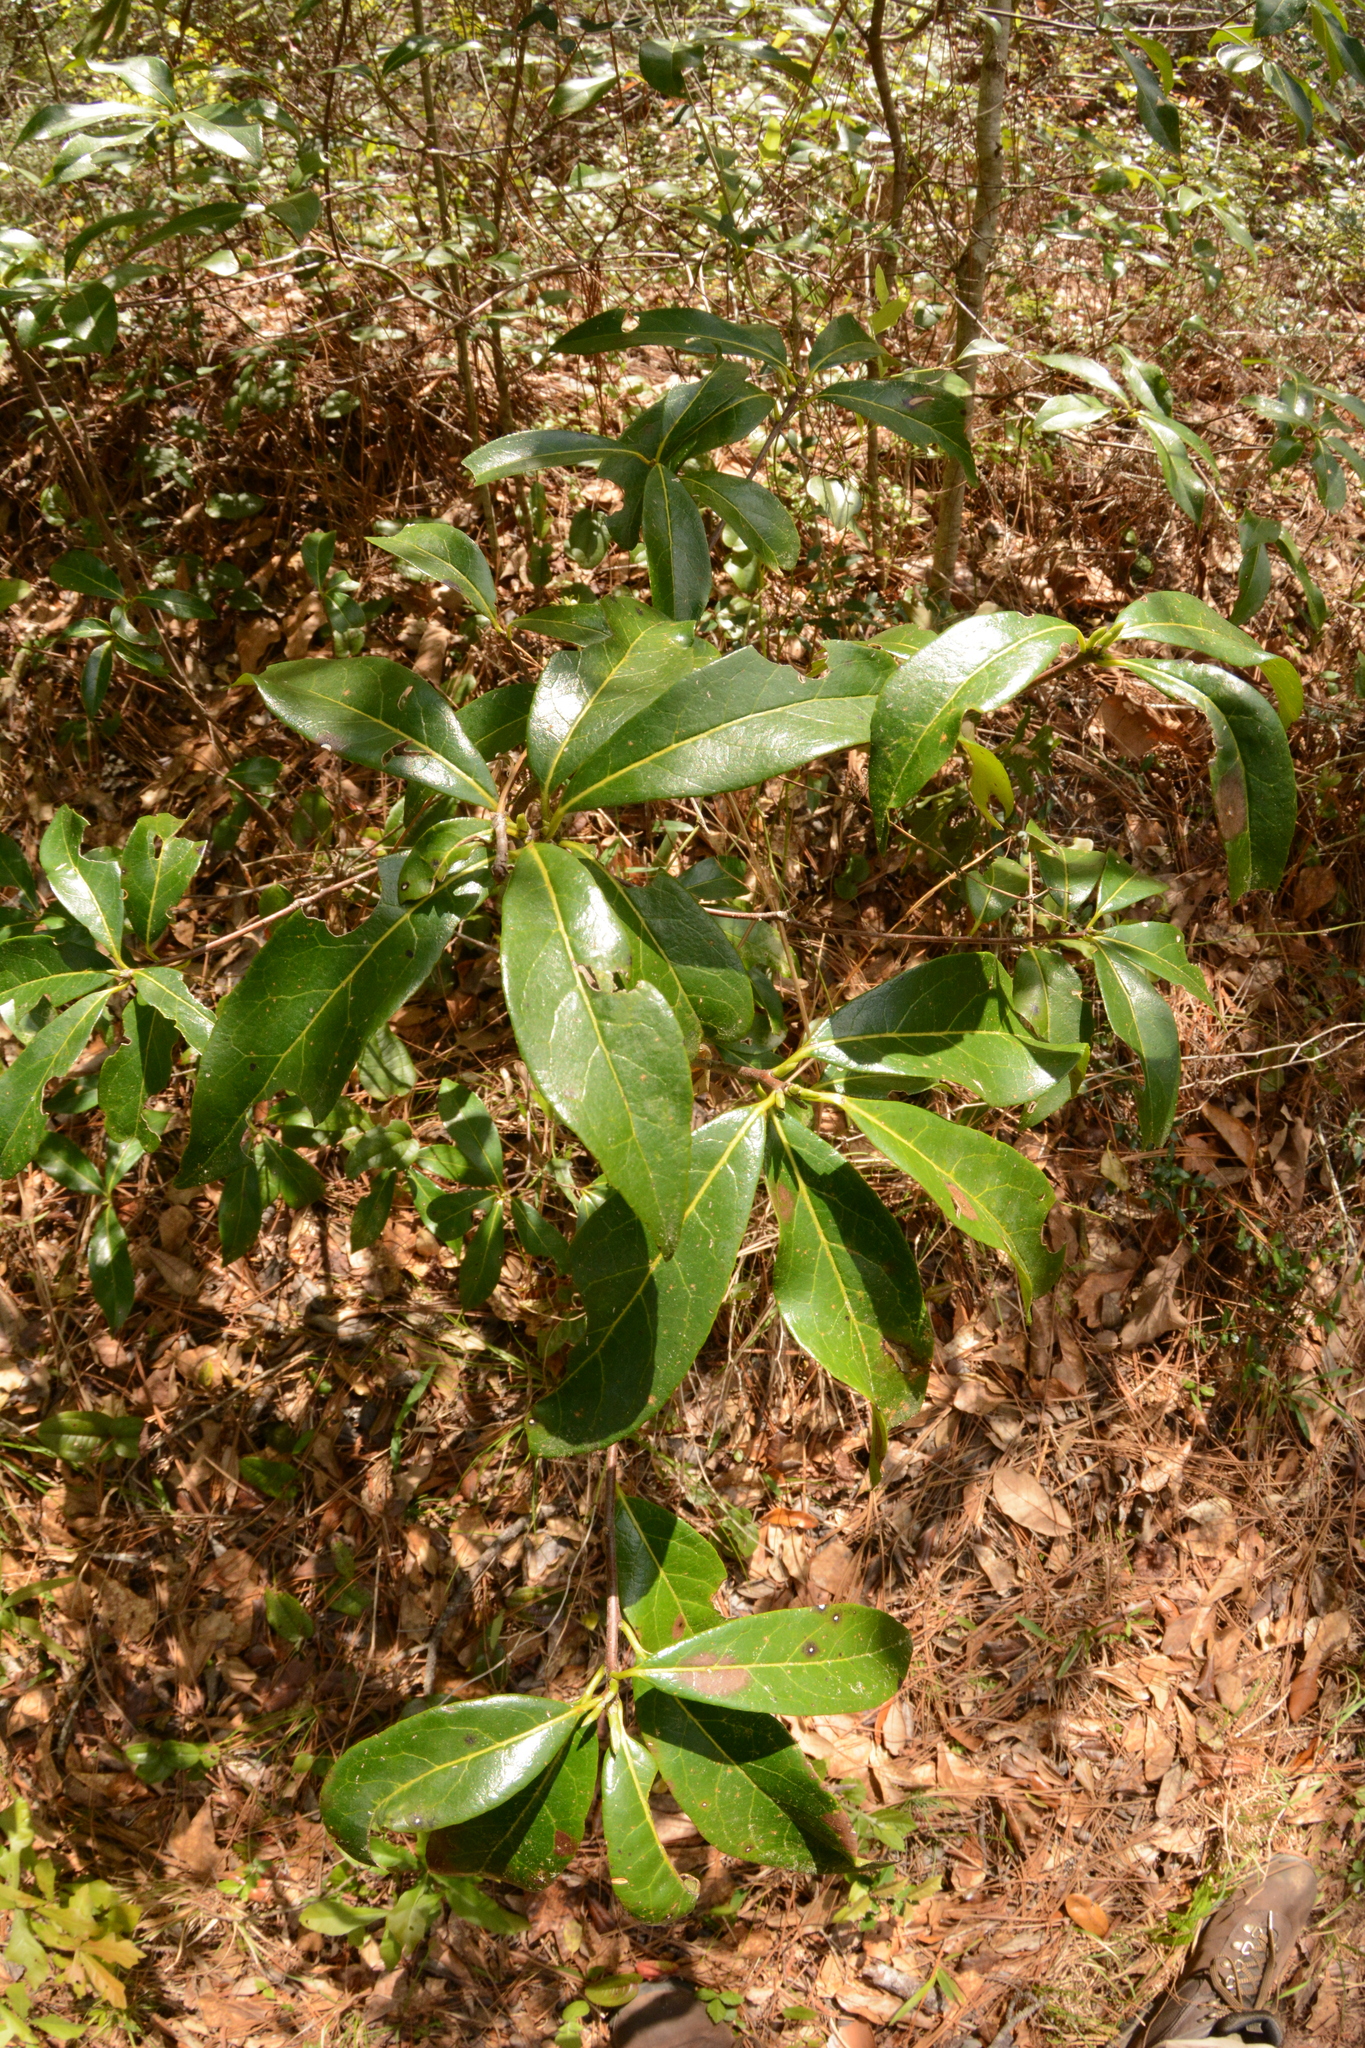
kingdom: Plantae
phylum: Tracheophyta
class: Magnoliopsida
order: Ericales
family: Symplocaceae
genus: Symplocos
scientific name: Symplocos tinctoria
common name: Horse-sugar
